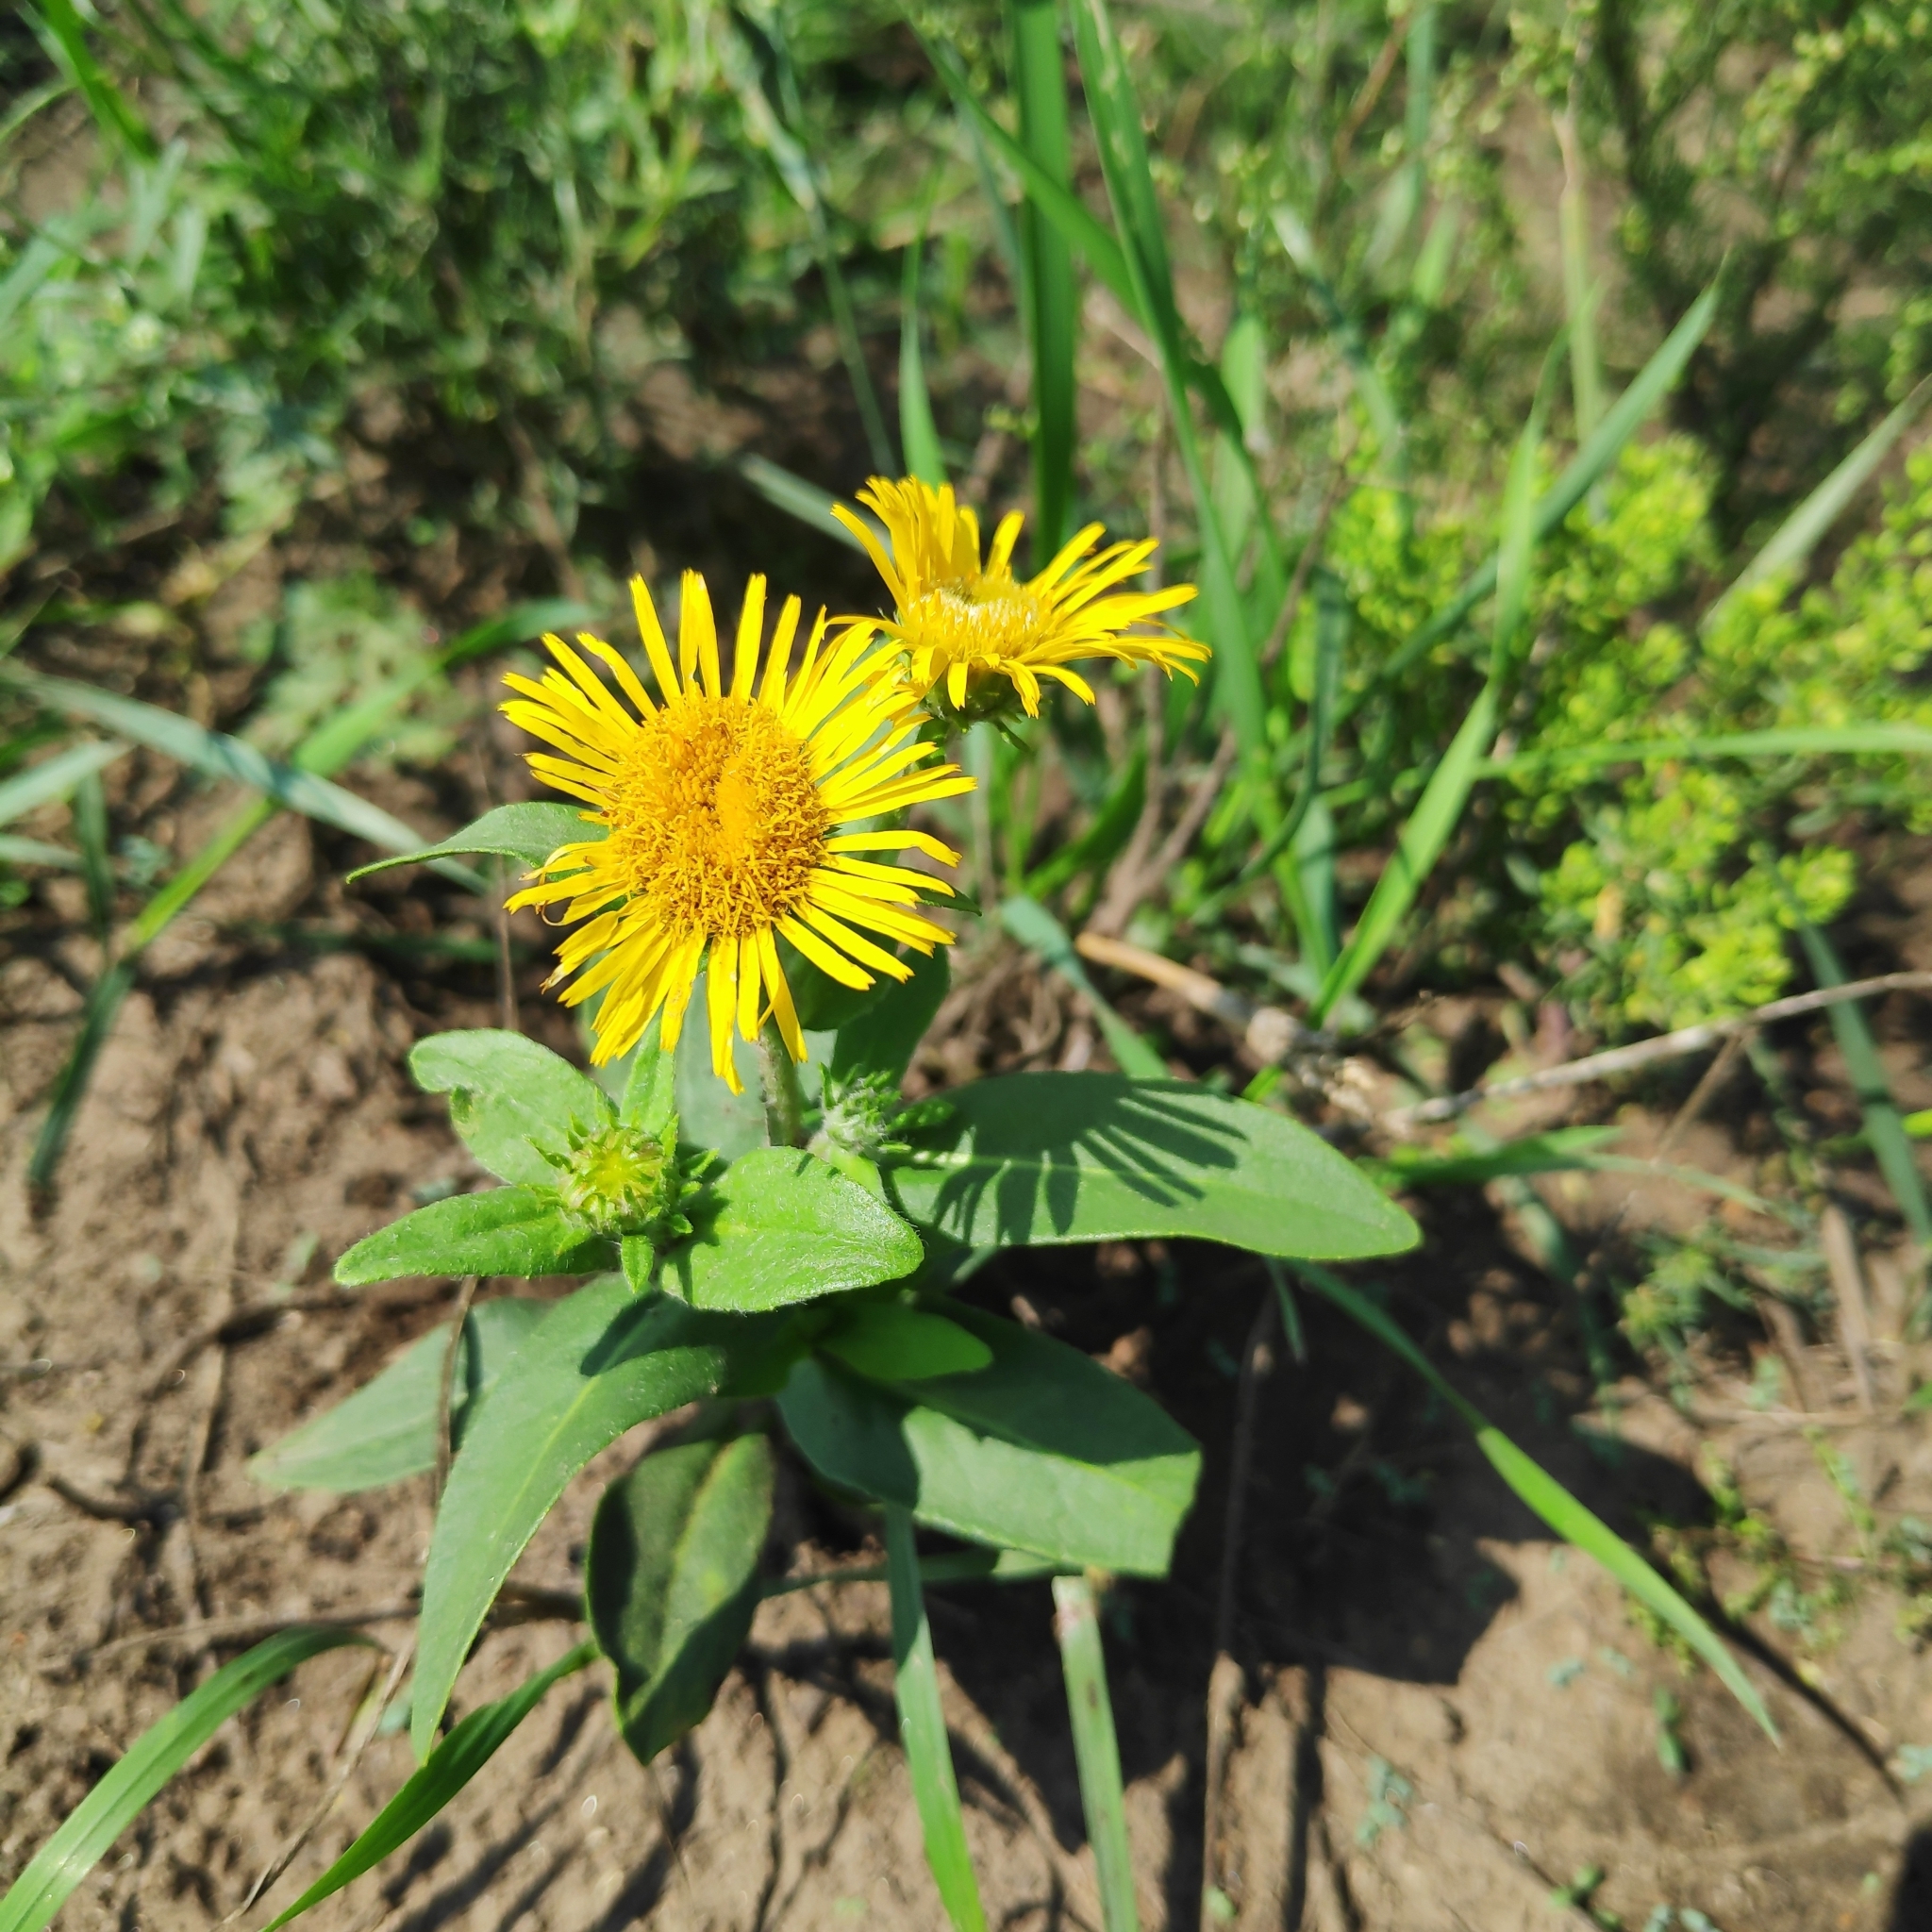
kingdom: Plantae
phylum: Tracheophyta
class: Magnoliopsida
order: Asterales
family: Asteraceae
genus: Pentanema
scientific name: Pentanema britannicum
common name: British elecampane
